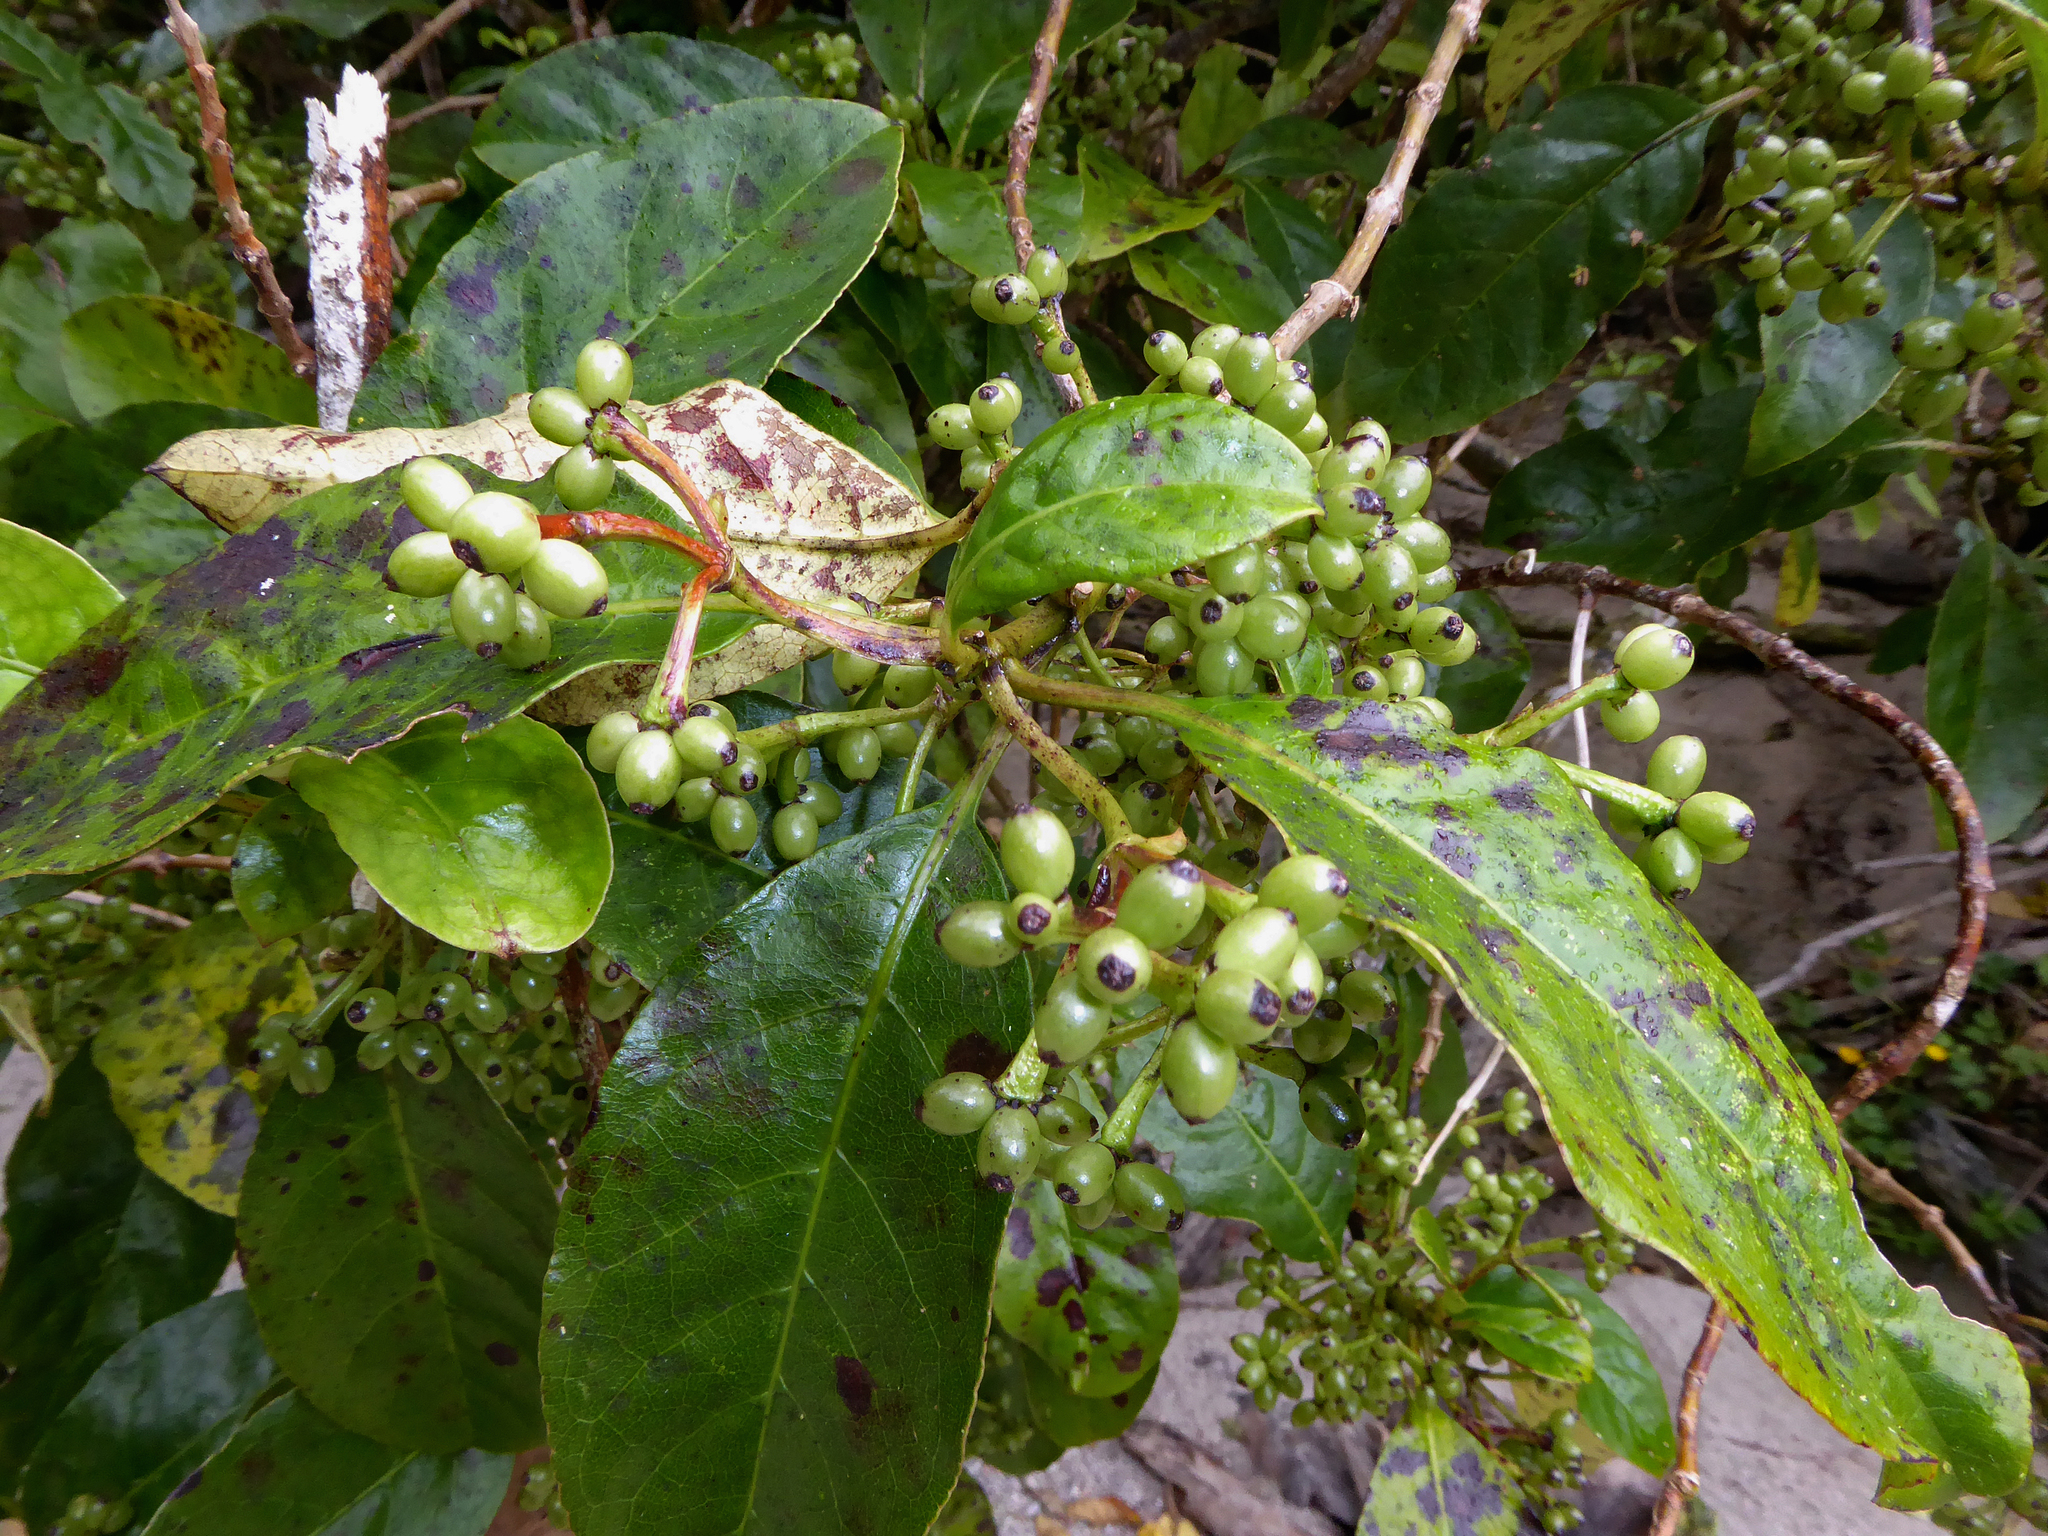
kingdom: Plantae
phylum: Tracheophyta
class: Magnoliopsida
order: Gentianales
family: Rubiaceae
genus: Coprosma
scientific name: Coprosma autumnalis
